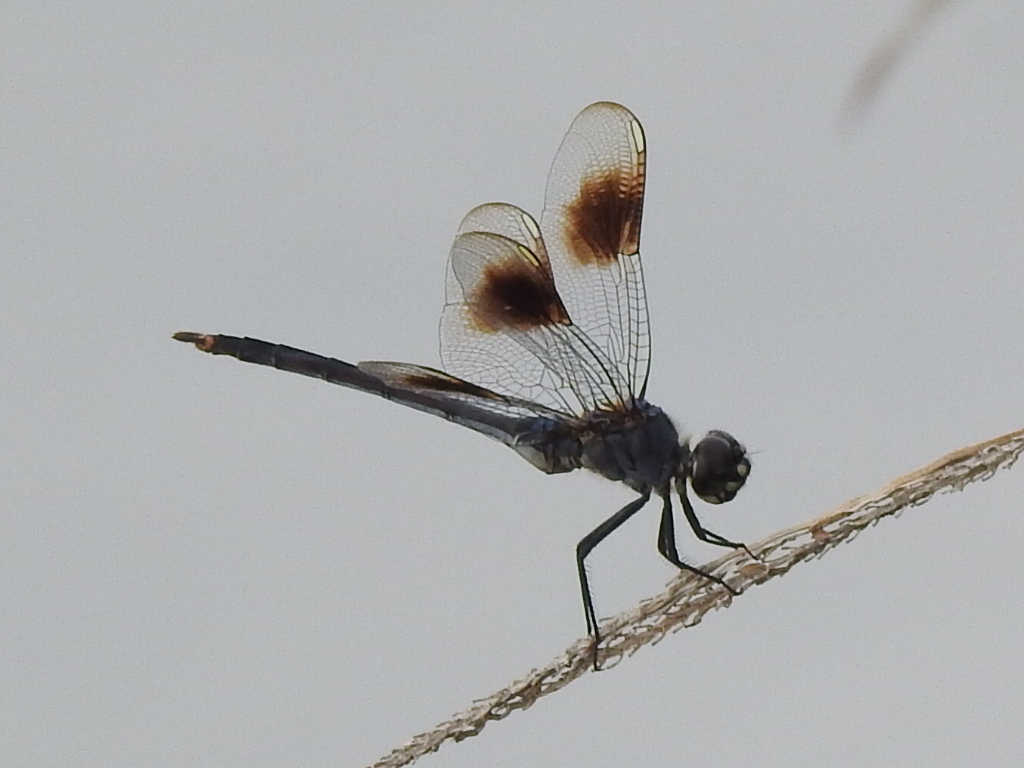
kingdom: Animalia
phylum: Arthropoda
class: Insecta
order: Odonata
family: Libellulidae
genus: Brachymesia
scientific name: Brachymesia gravida
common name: Four-spotted pennant
